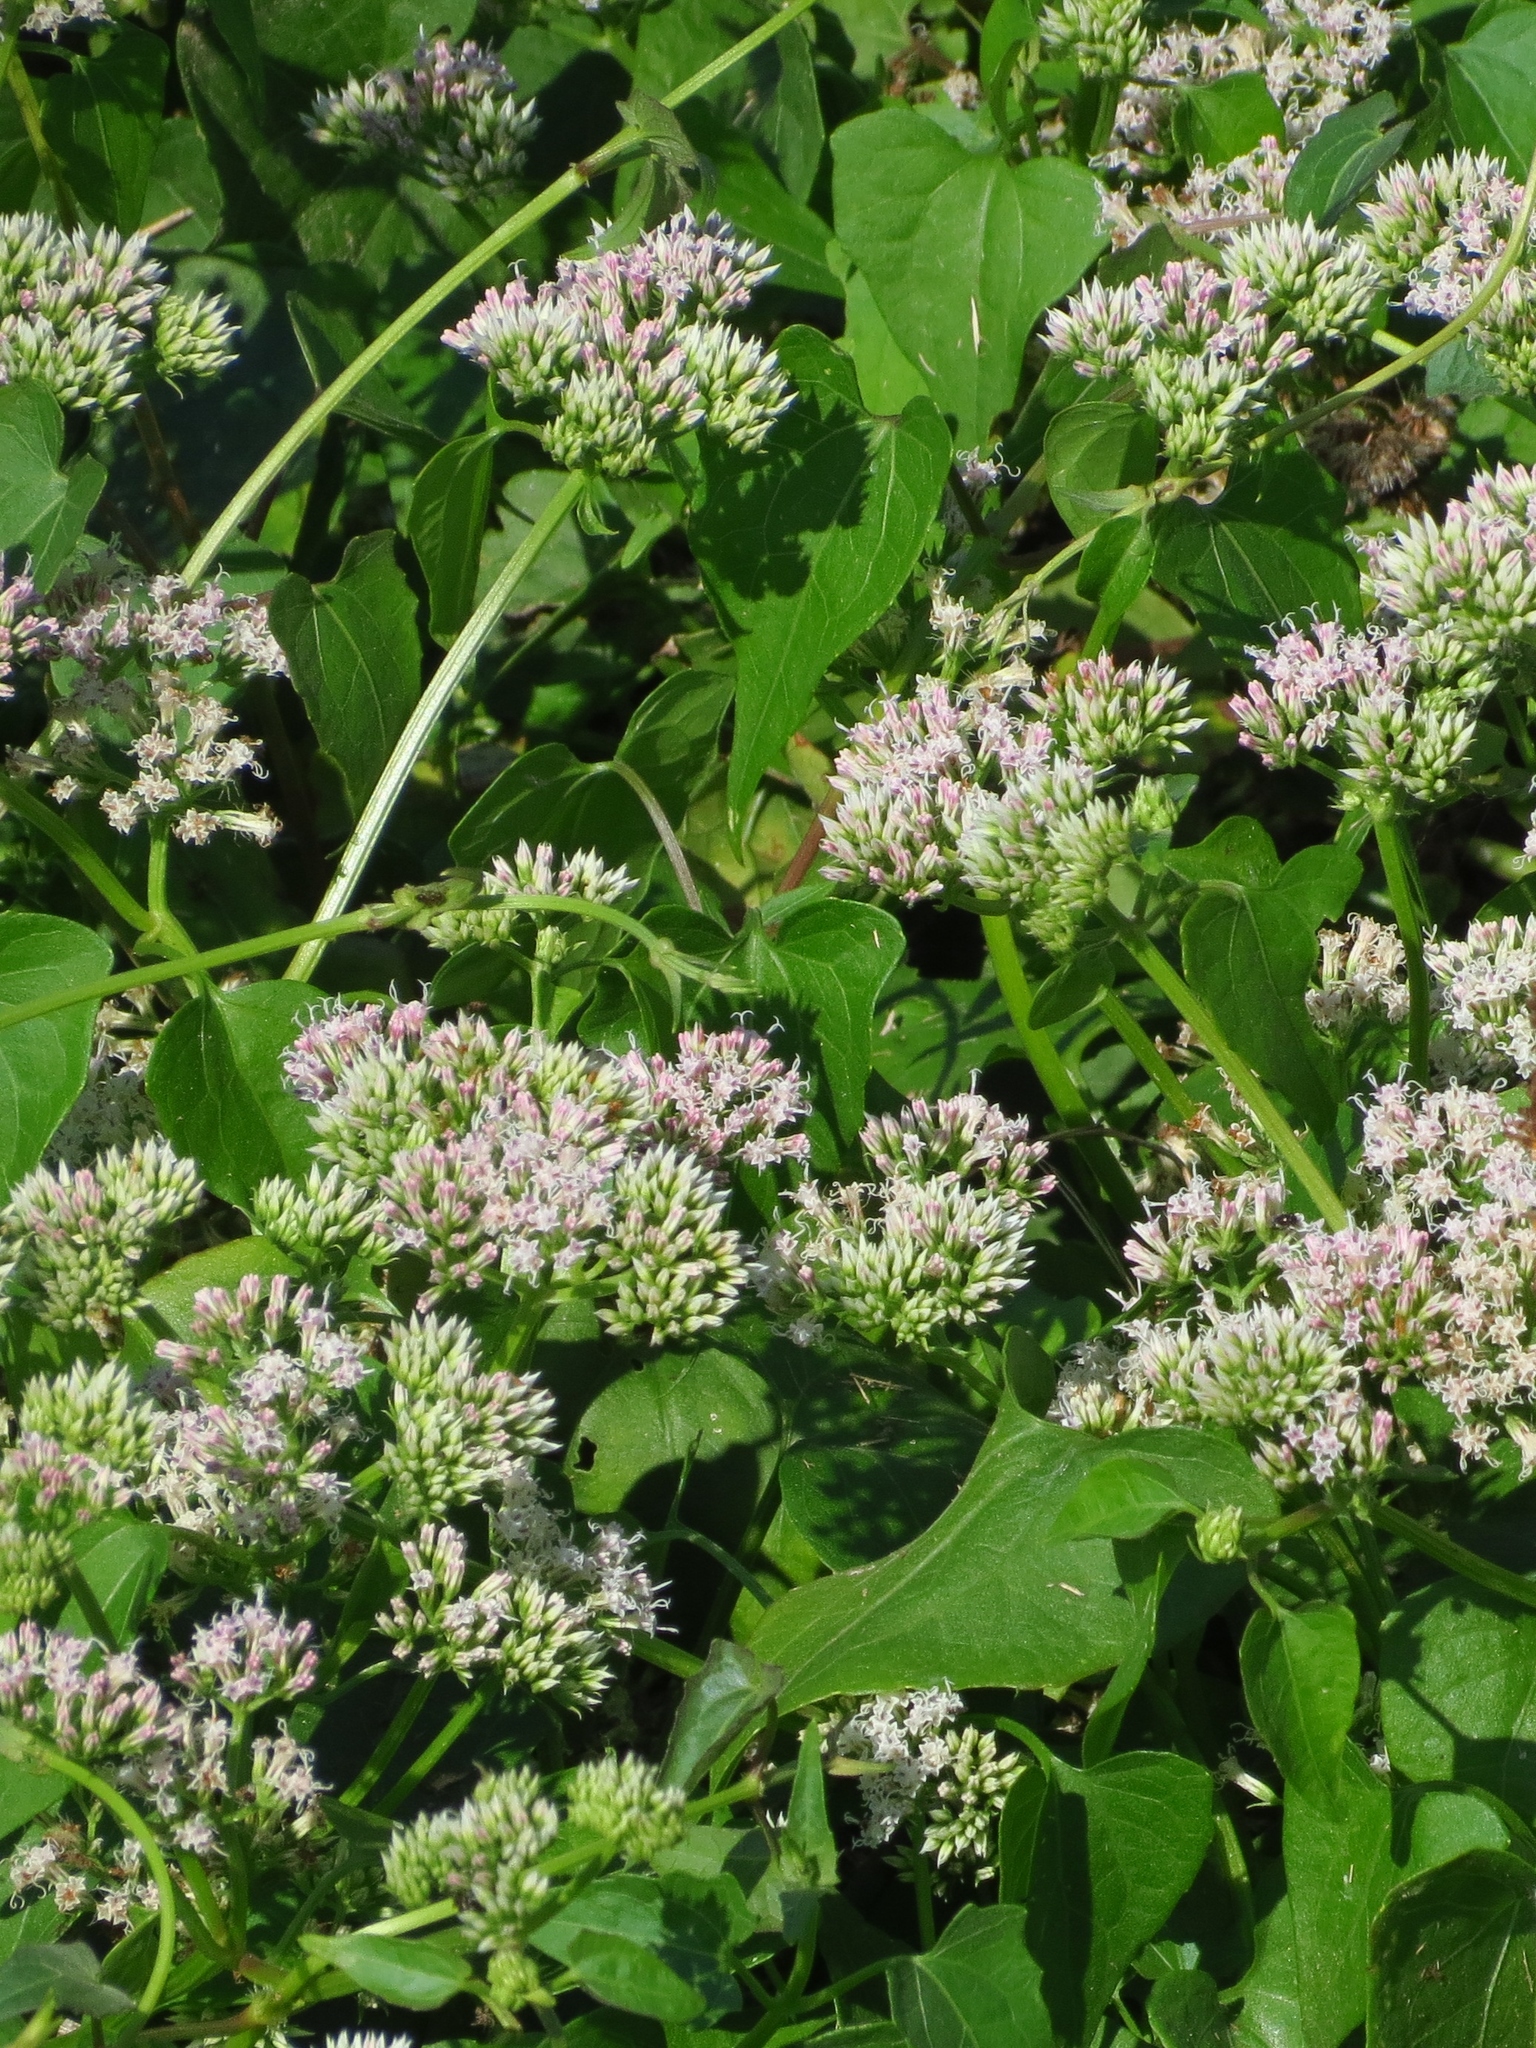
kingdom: Plantae
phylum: Tracheophyta
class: Magnoliopsida
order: Asterales
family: Asteraceae
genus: Mikania
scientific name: Mikania scandens
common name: Climbing hempvine
